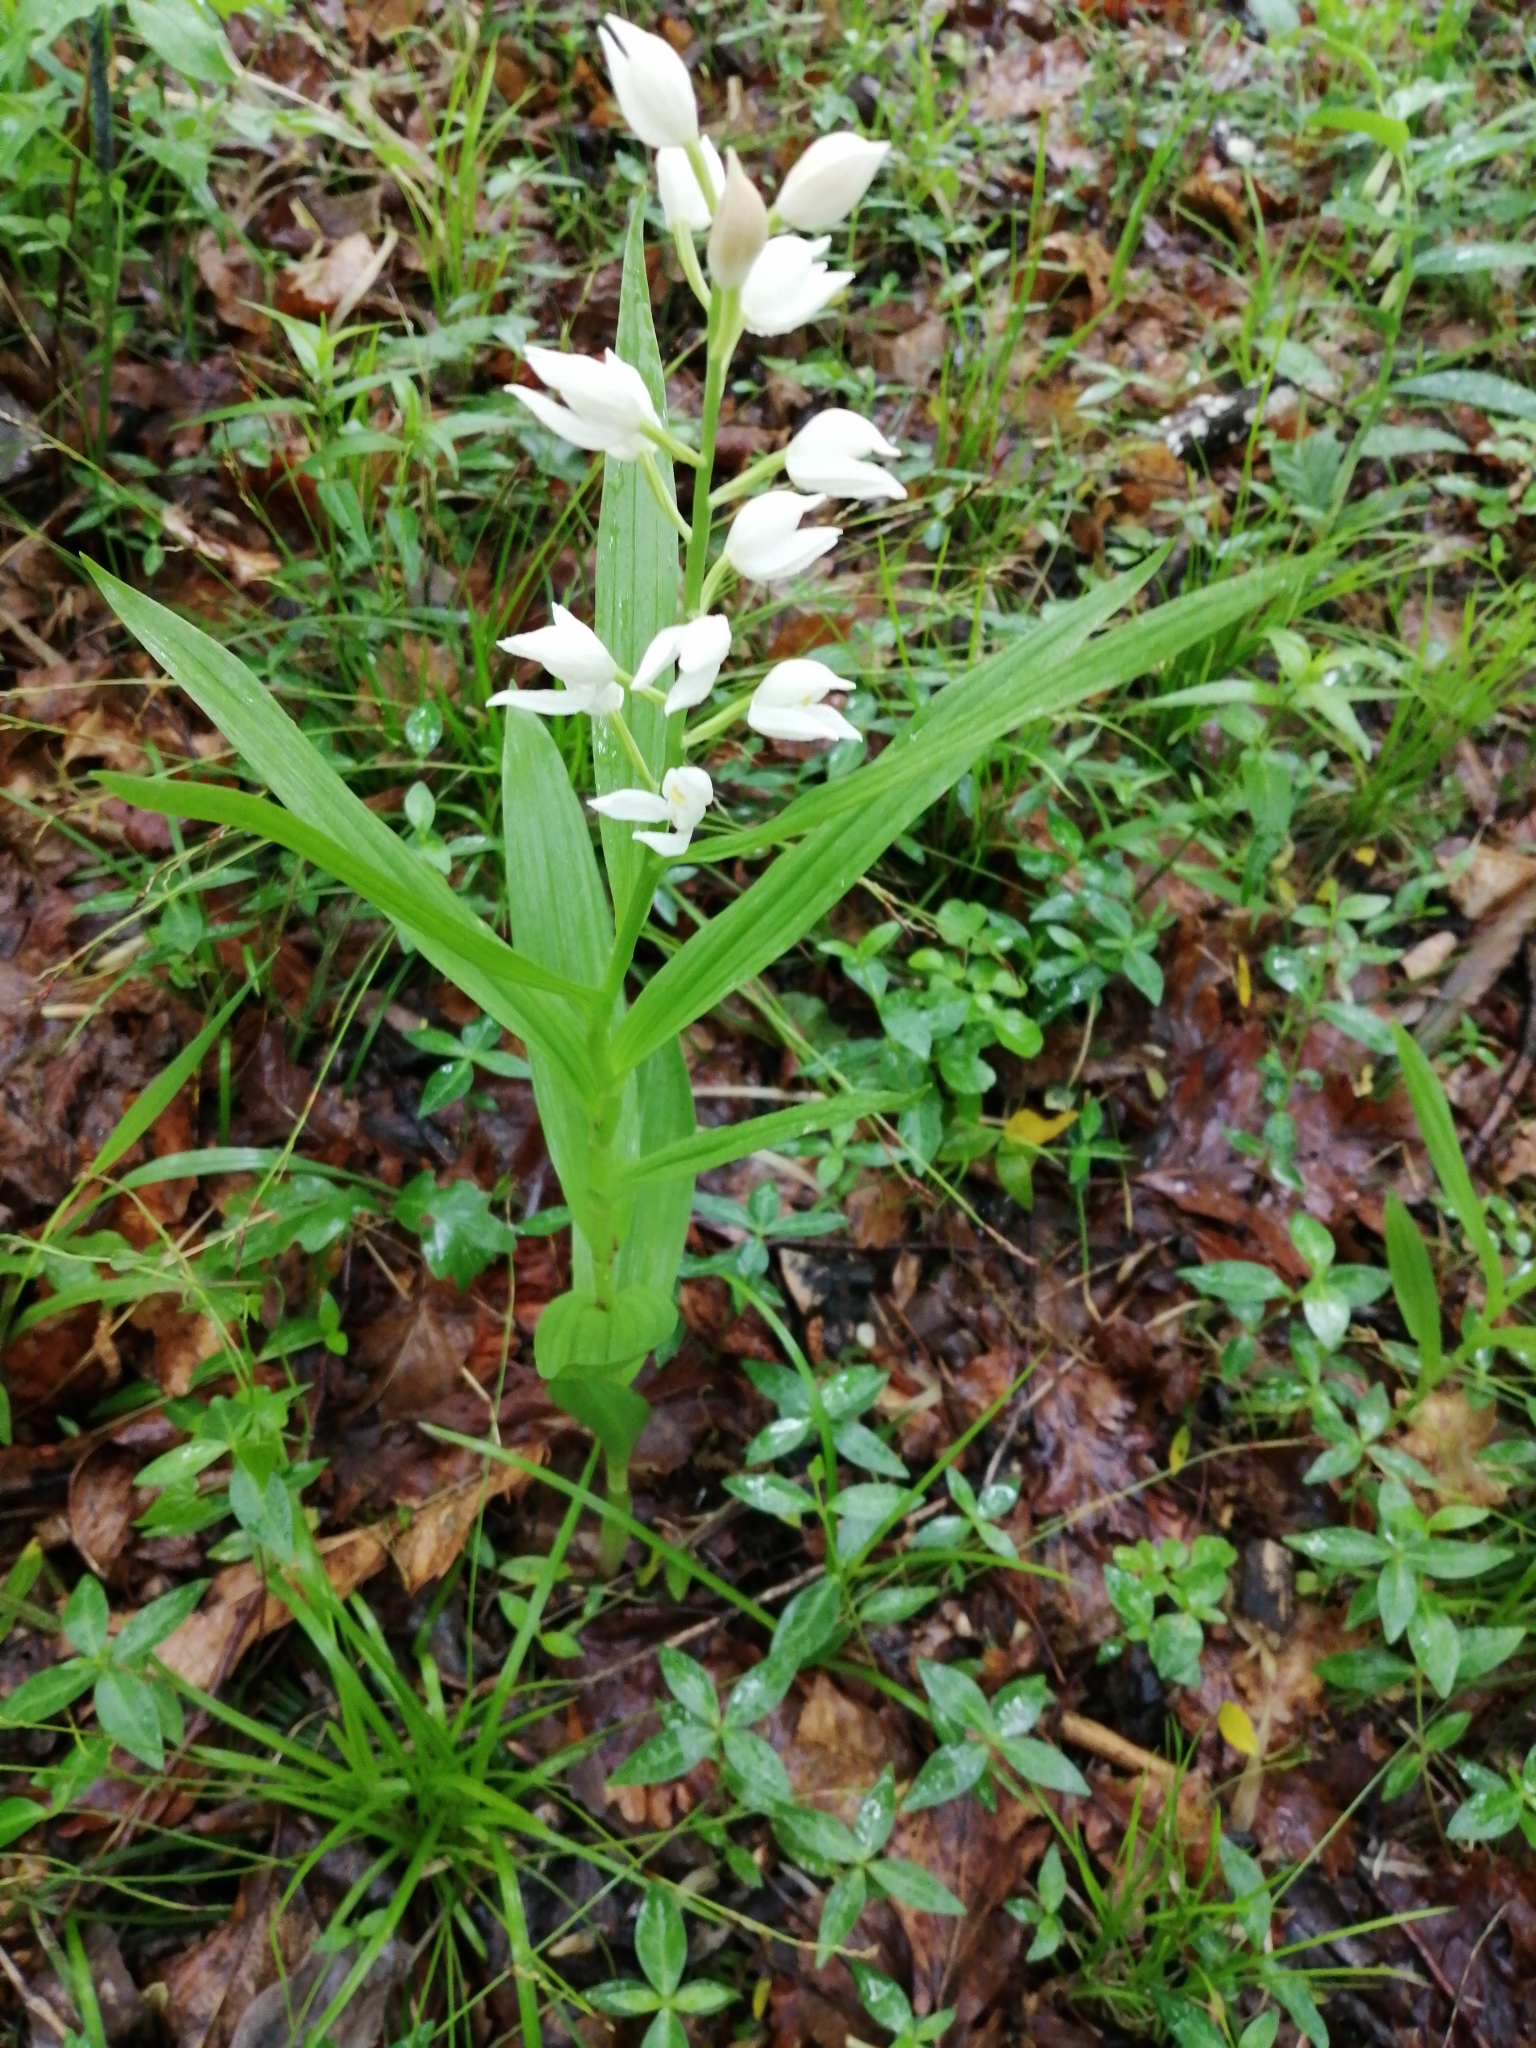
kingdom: Plantae
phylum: Tracheophyta
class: Liliopsida
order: Asparagales
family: Orchidaceae
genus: Cephalanthera
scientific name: Cephalanthera longifolia
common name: Narrow-leaved helleborine
